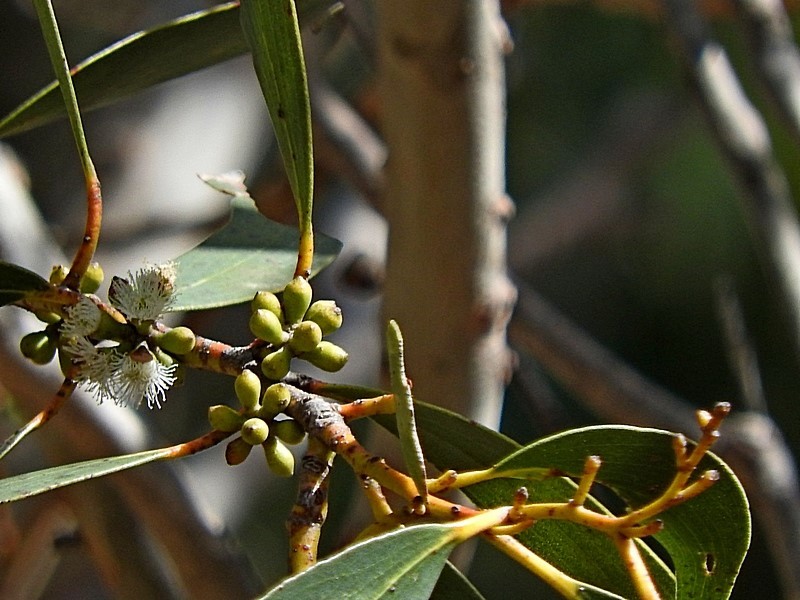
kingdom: Plantae
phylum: Tracheophyta
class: Magnoliopsida
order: Myrtales
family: Myrtaceae
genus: Eucalyptus
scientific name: Eucalyptus pauciflora
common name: Snow gum
